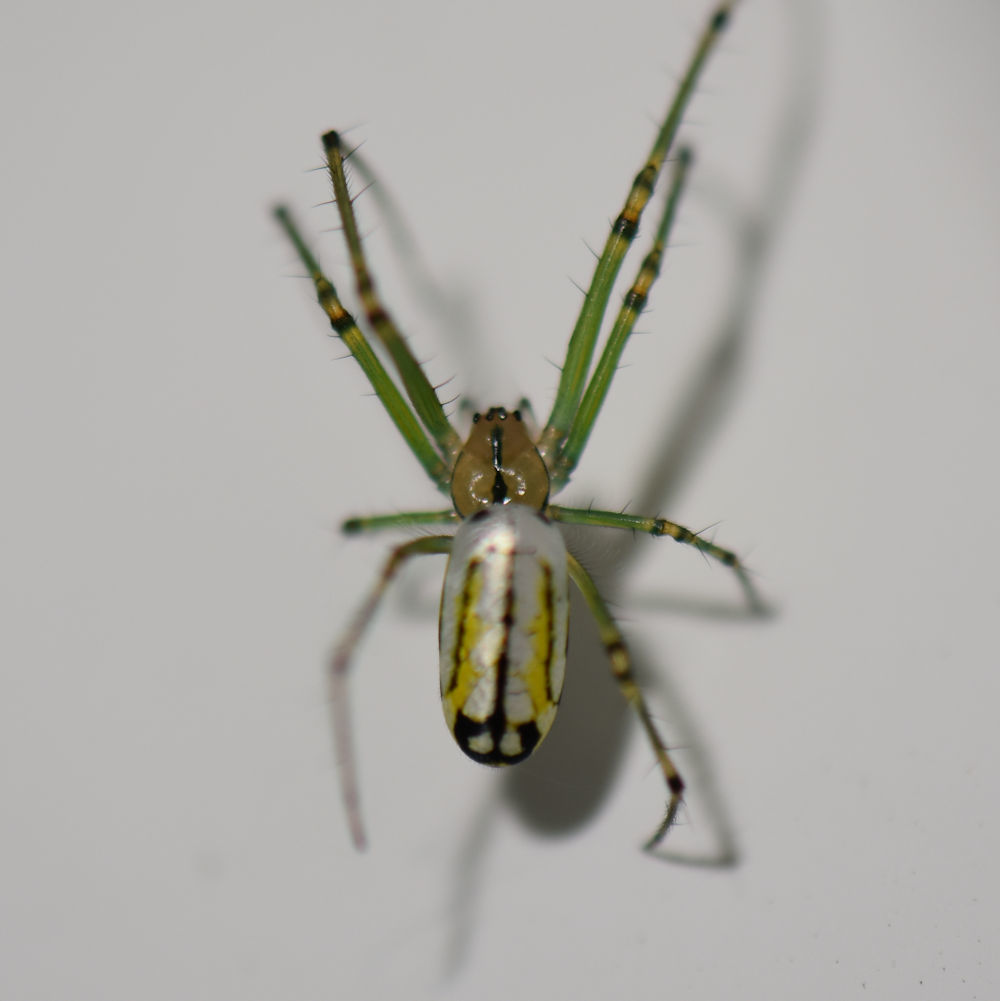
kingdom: Animalia
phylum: Arthropoda
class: Arachnida
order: Araneae
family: Tetragnathidae
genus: Leucauge
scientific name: Leucauge venusta
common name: Longjawed orb weavers
